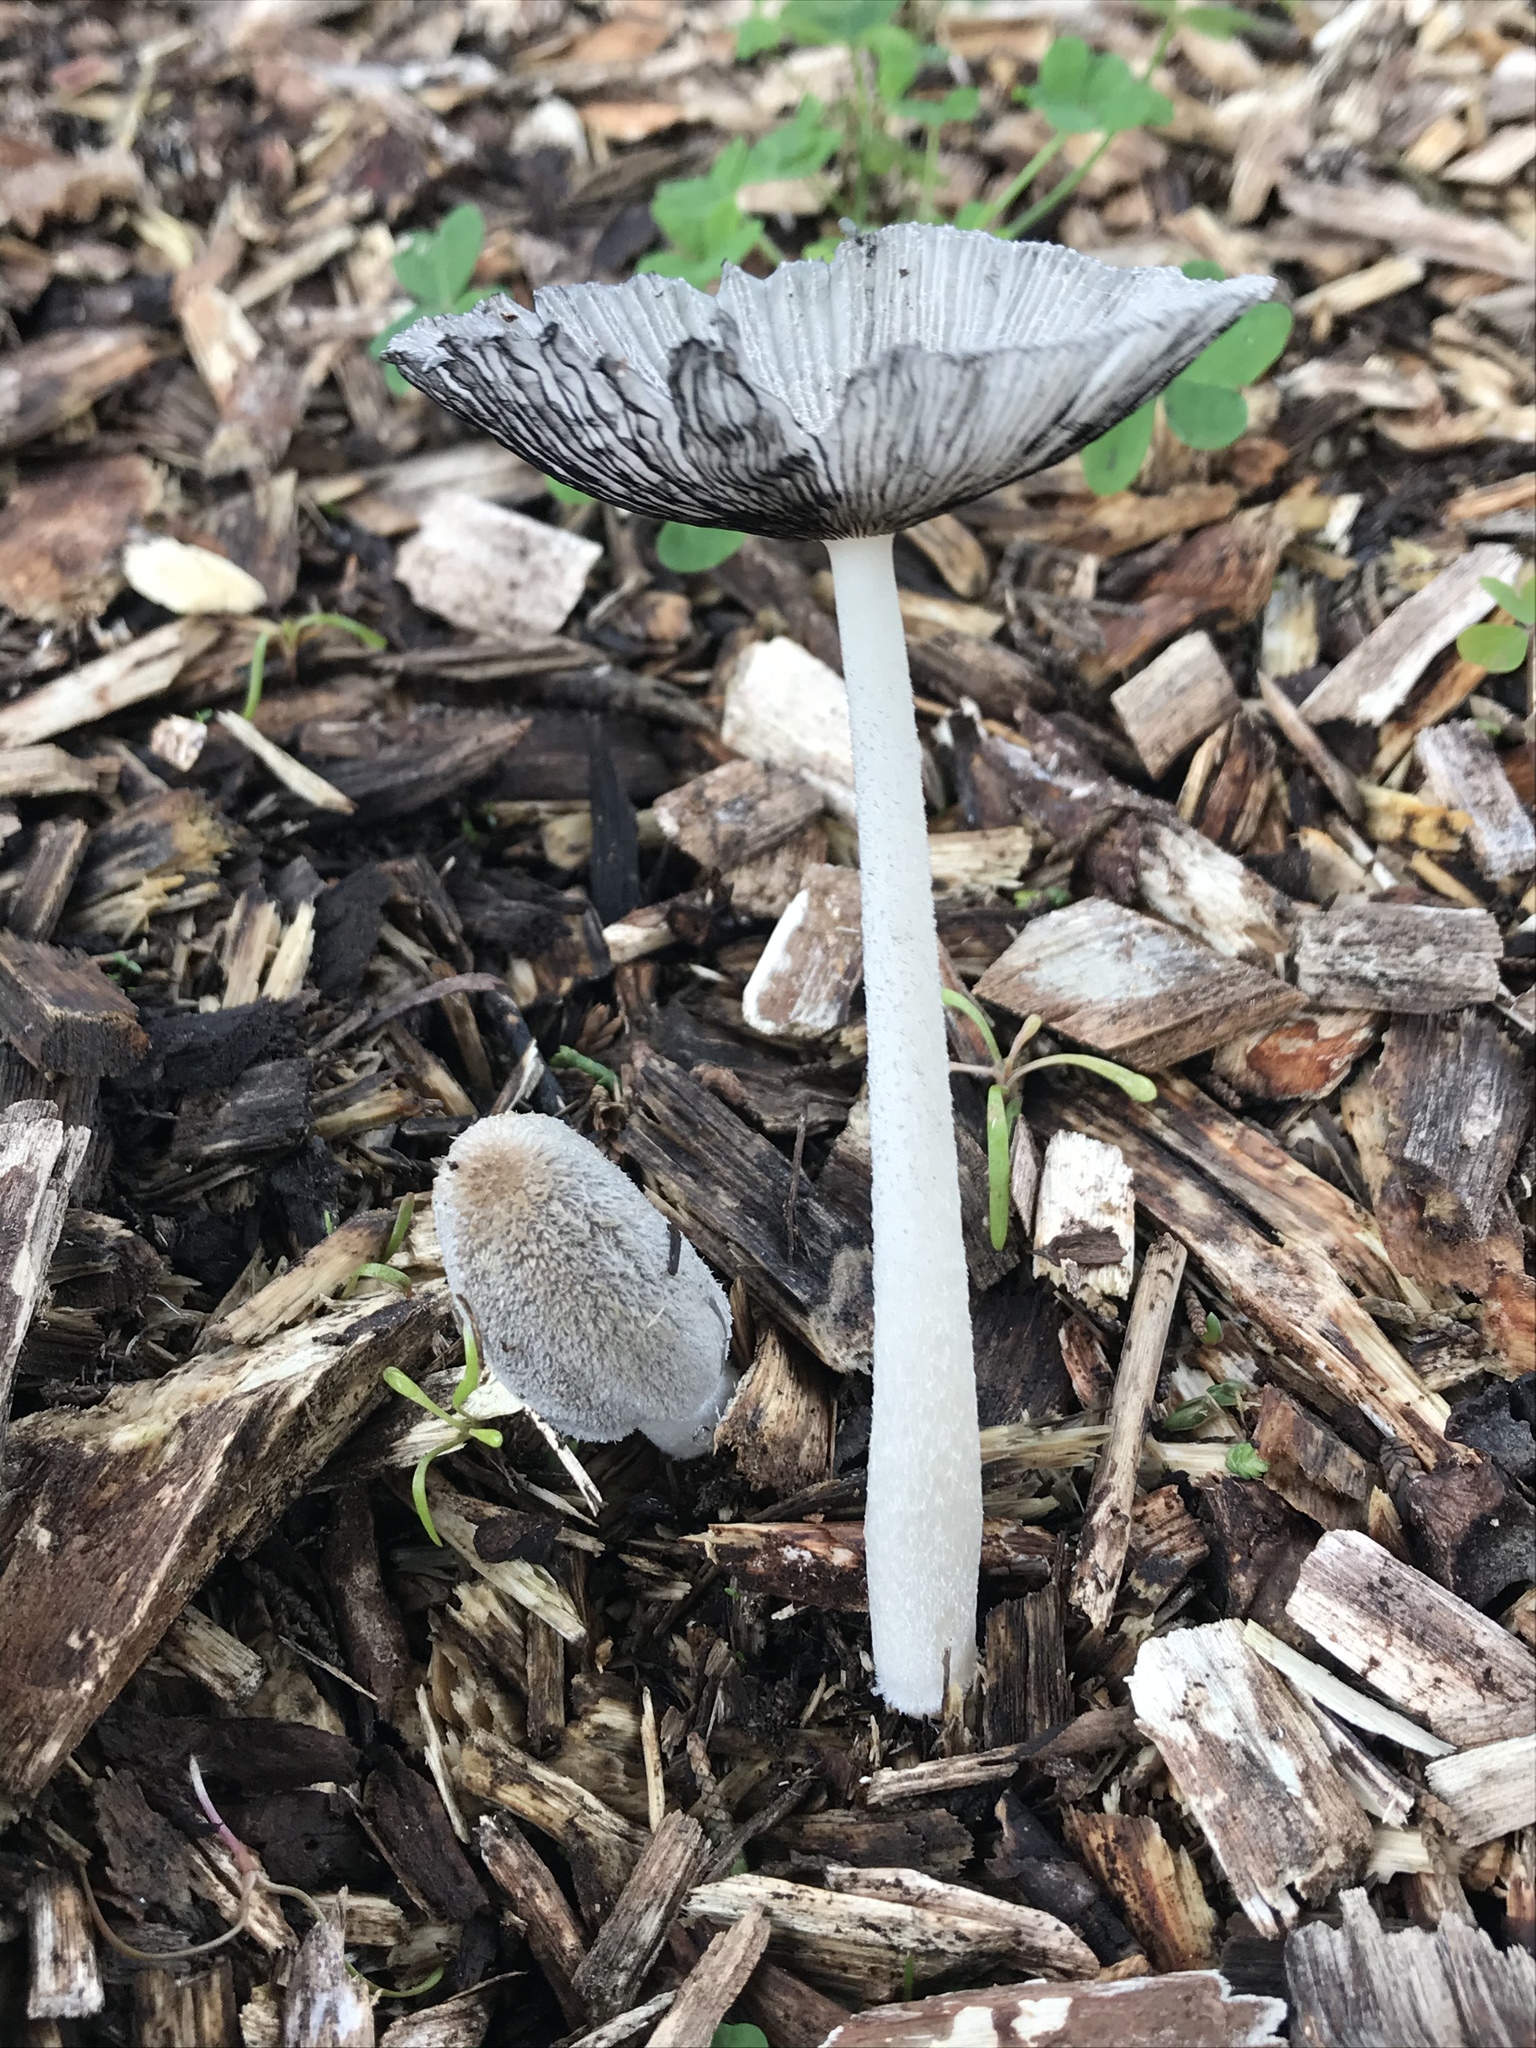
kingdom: Fungi
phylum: Basidiomycota
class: Agaricomycetes
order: Agaricales
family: Psathyrellaceae
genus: Coprinopsis
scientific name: Coprinopsis lagopus
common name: Hare'sfoot inkcap
